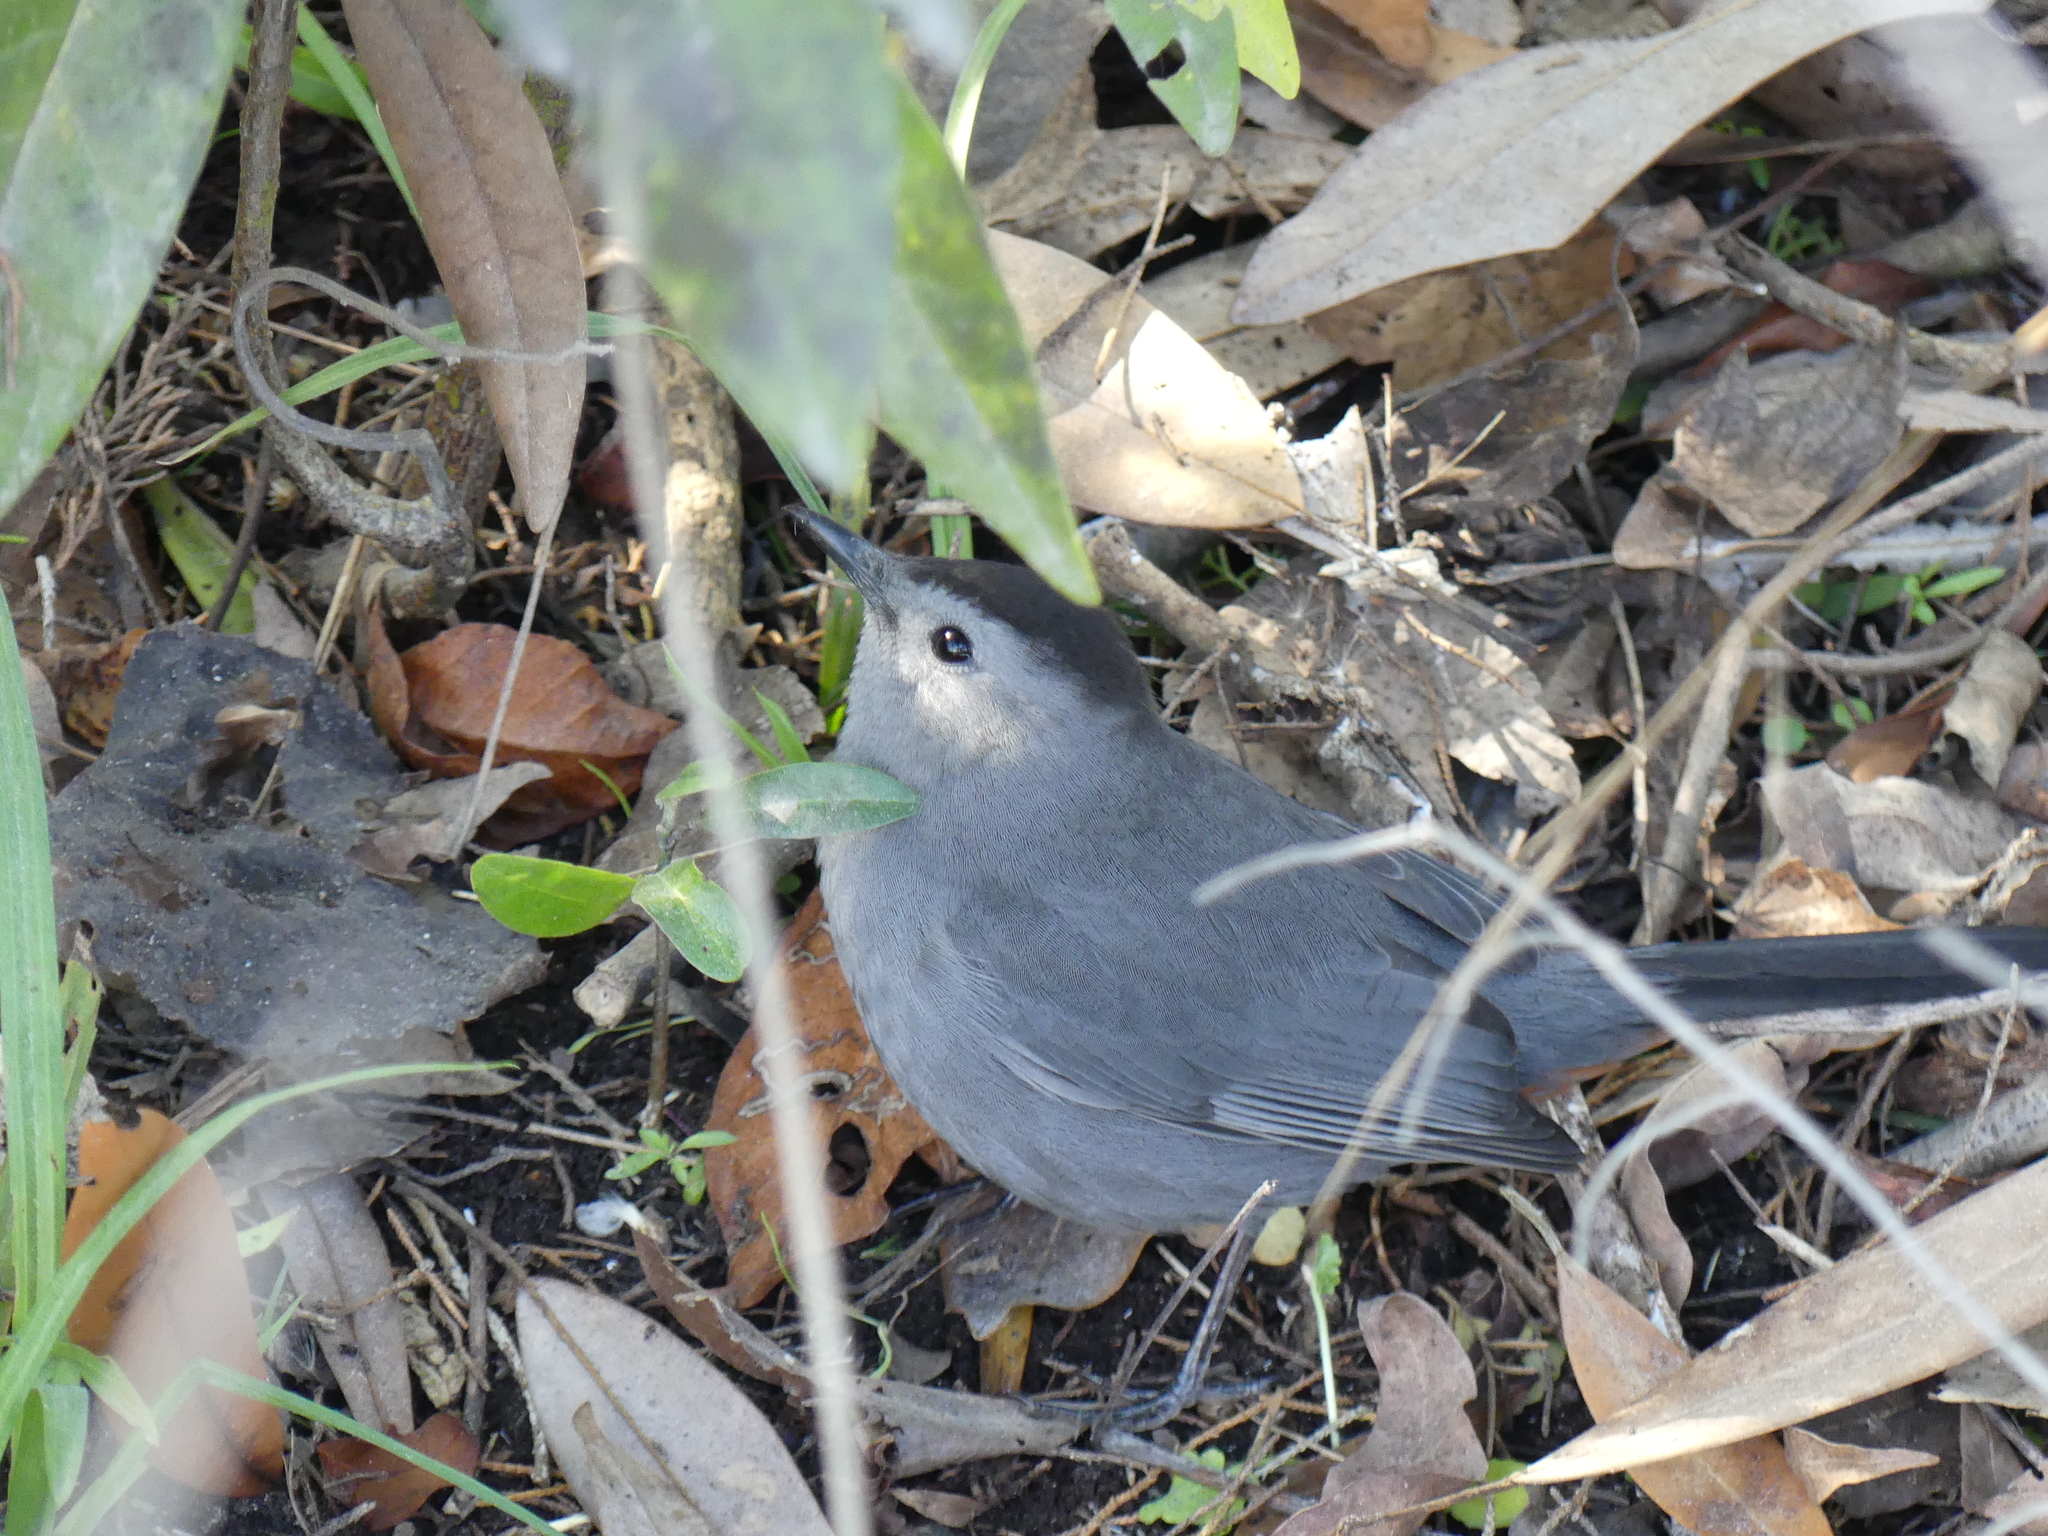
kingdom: Animalia
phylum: Chordata
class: Aves
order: Passeriformes
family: Mimidae
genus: Dumetella
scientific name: Dumetella carolinensis
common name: Gray catbird
